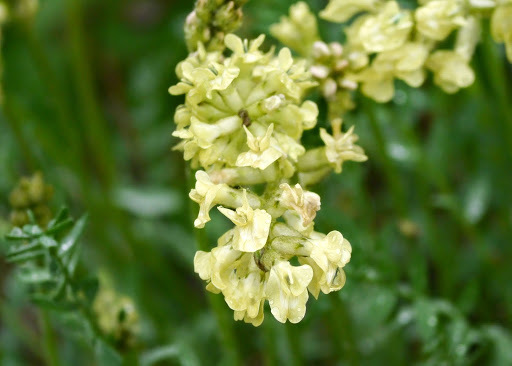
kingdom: Plantae
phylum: Tracheophyta
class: Magnoliopsida
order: Fabales
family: Fabaceae
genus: Oxytropis
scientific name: Oxytropis campestris
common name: Field locoweed
